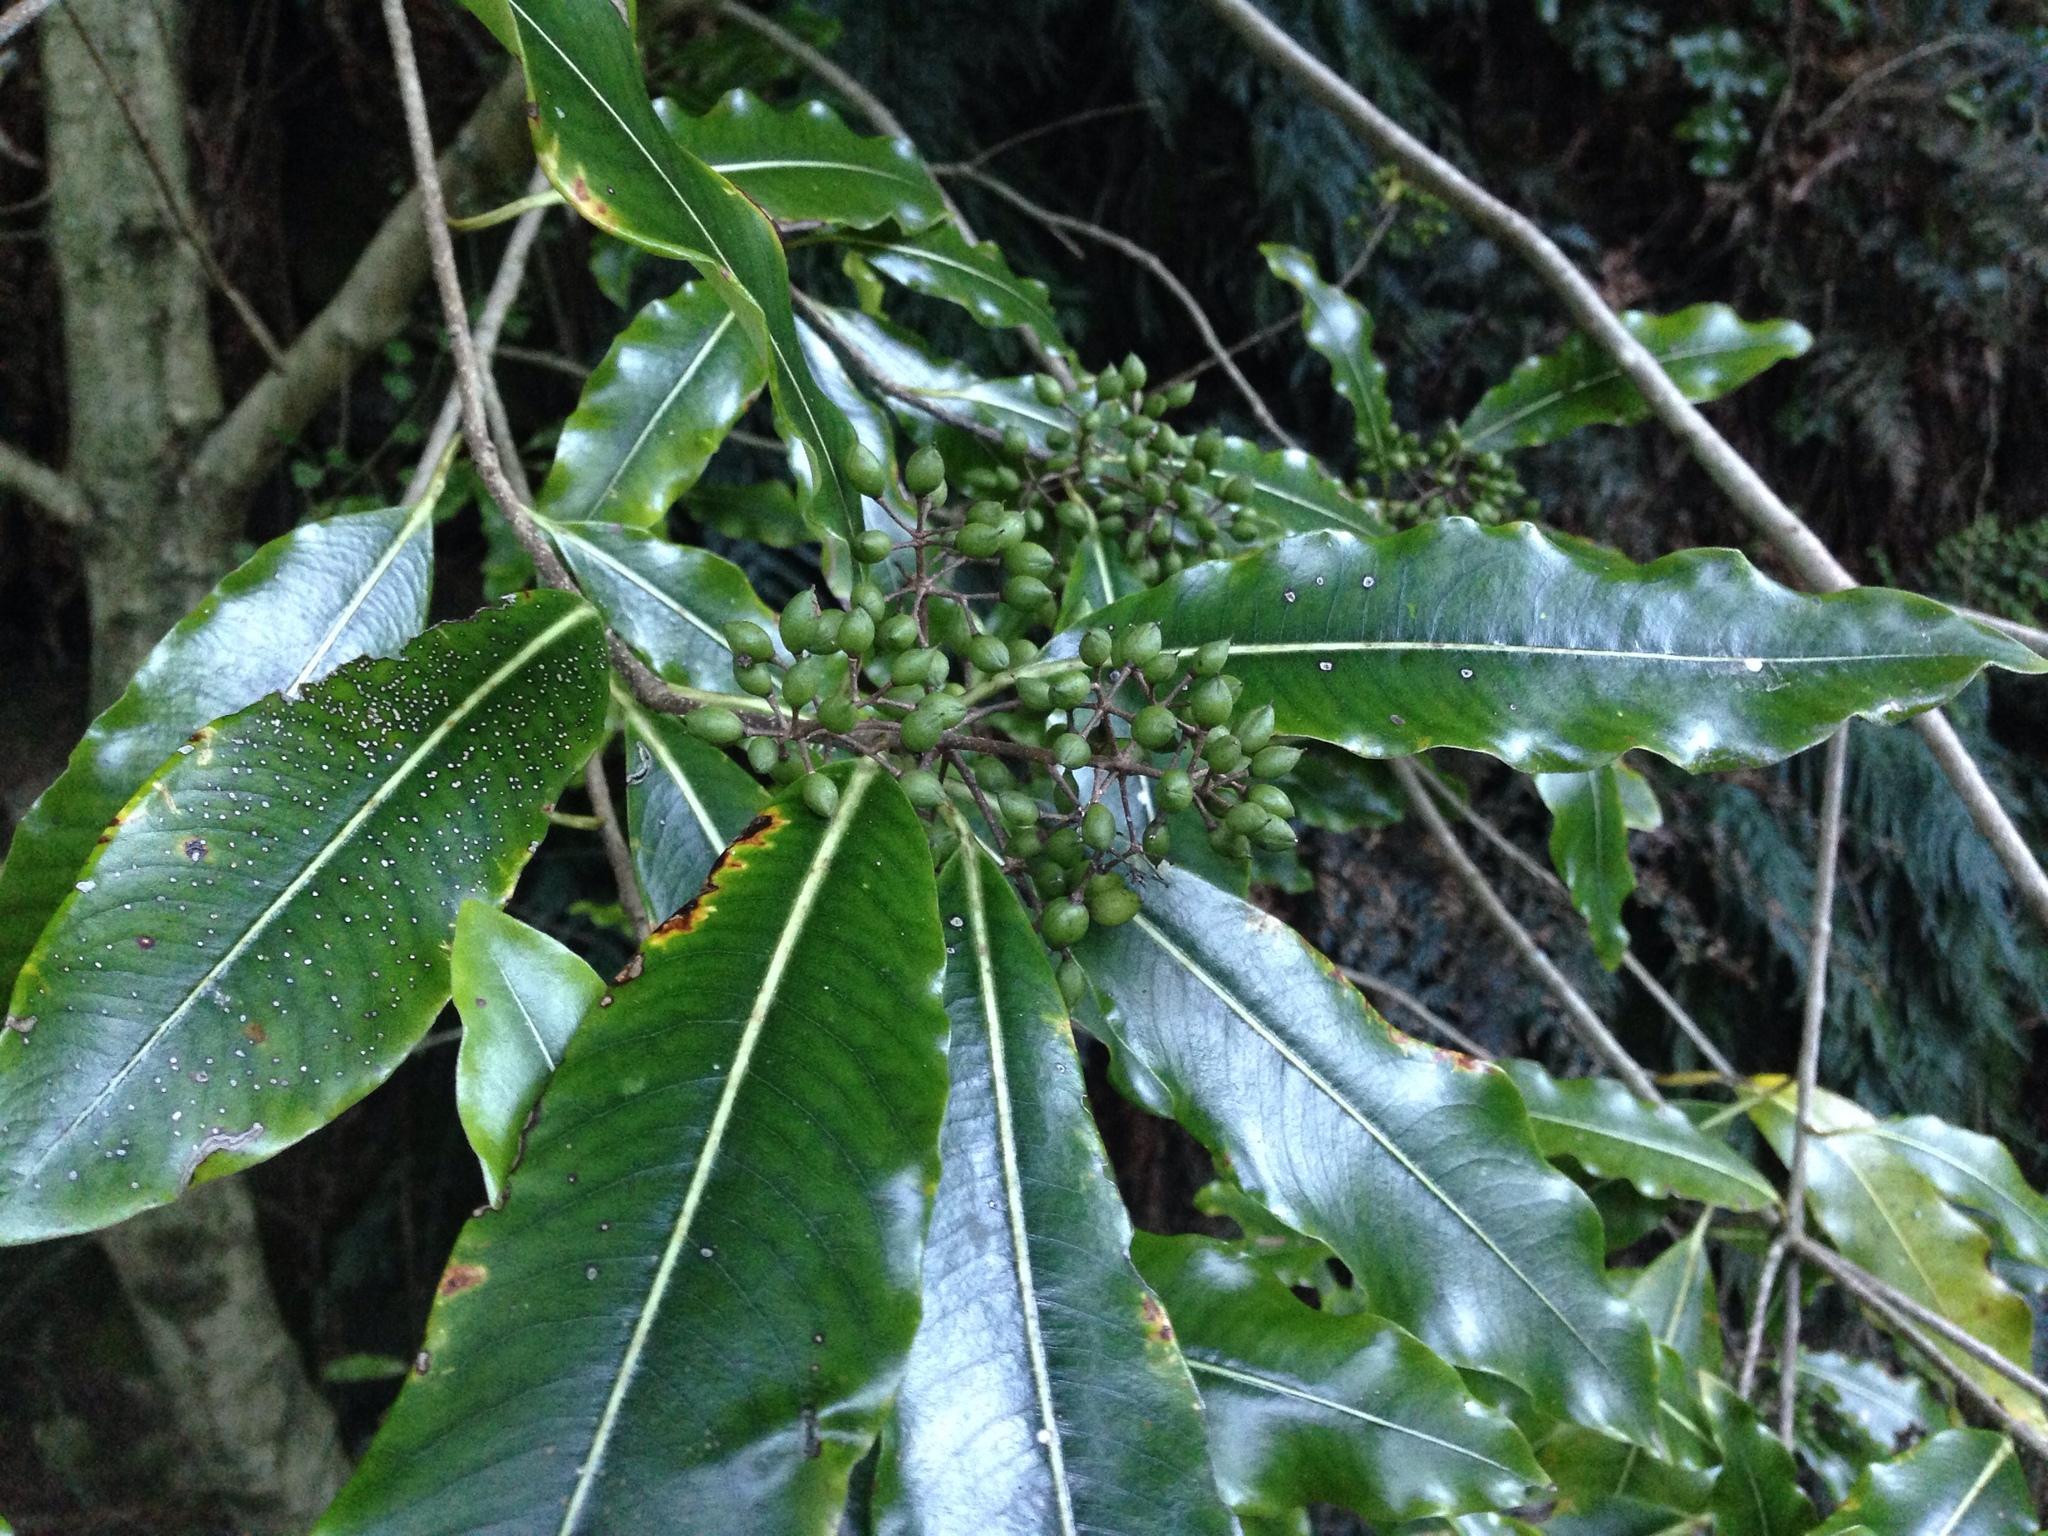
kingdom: Plantae
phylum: Tracheophyta
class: Magnoliopsida
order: Apiales
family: Pittosporaceae
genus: Pittosporum
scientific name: Pittosporum eugenioides
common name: Lemonwood
